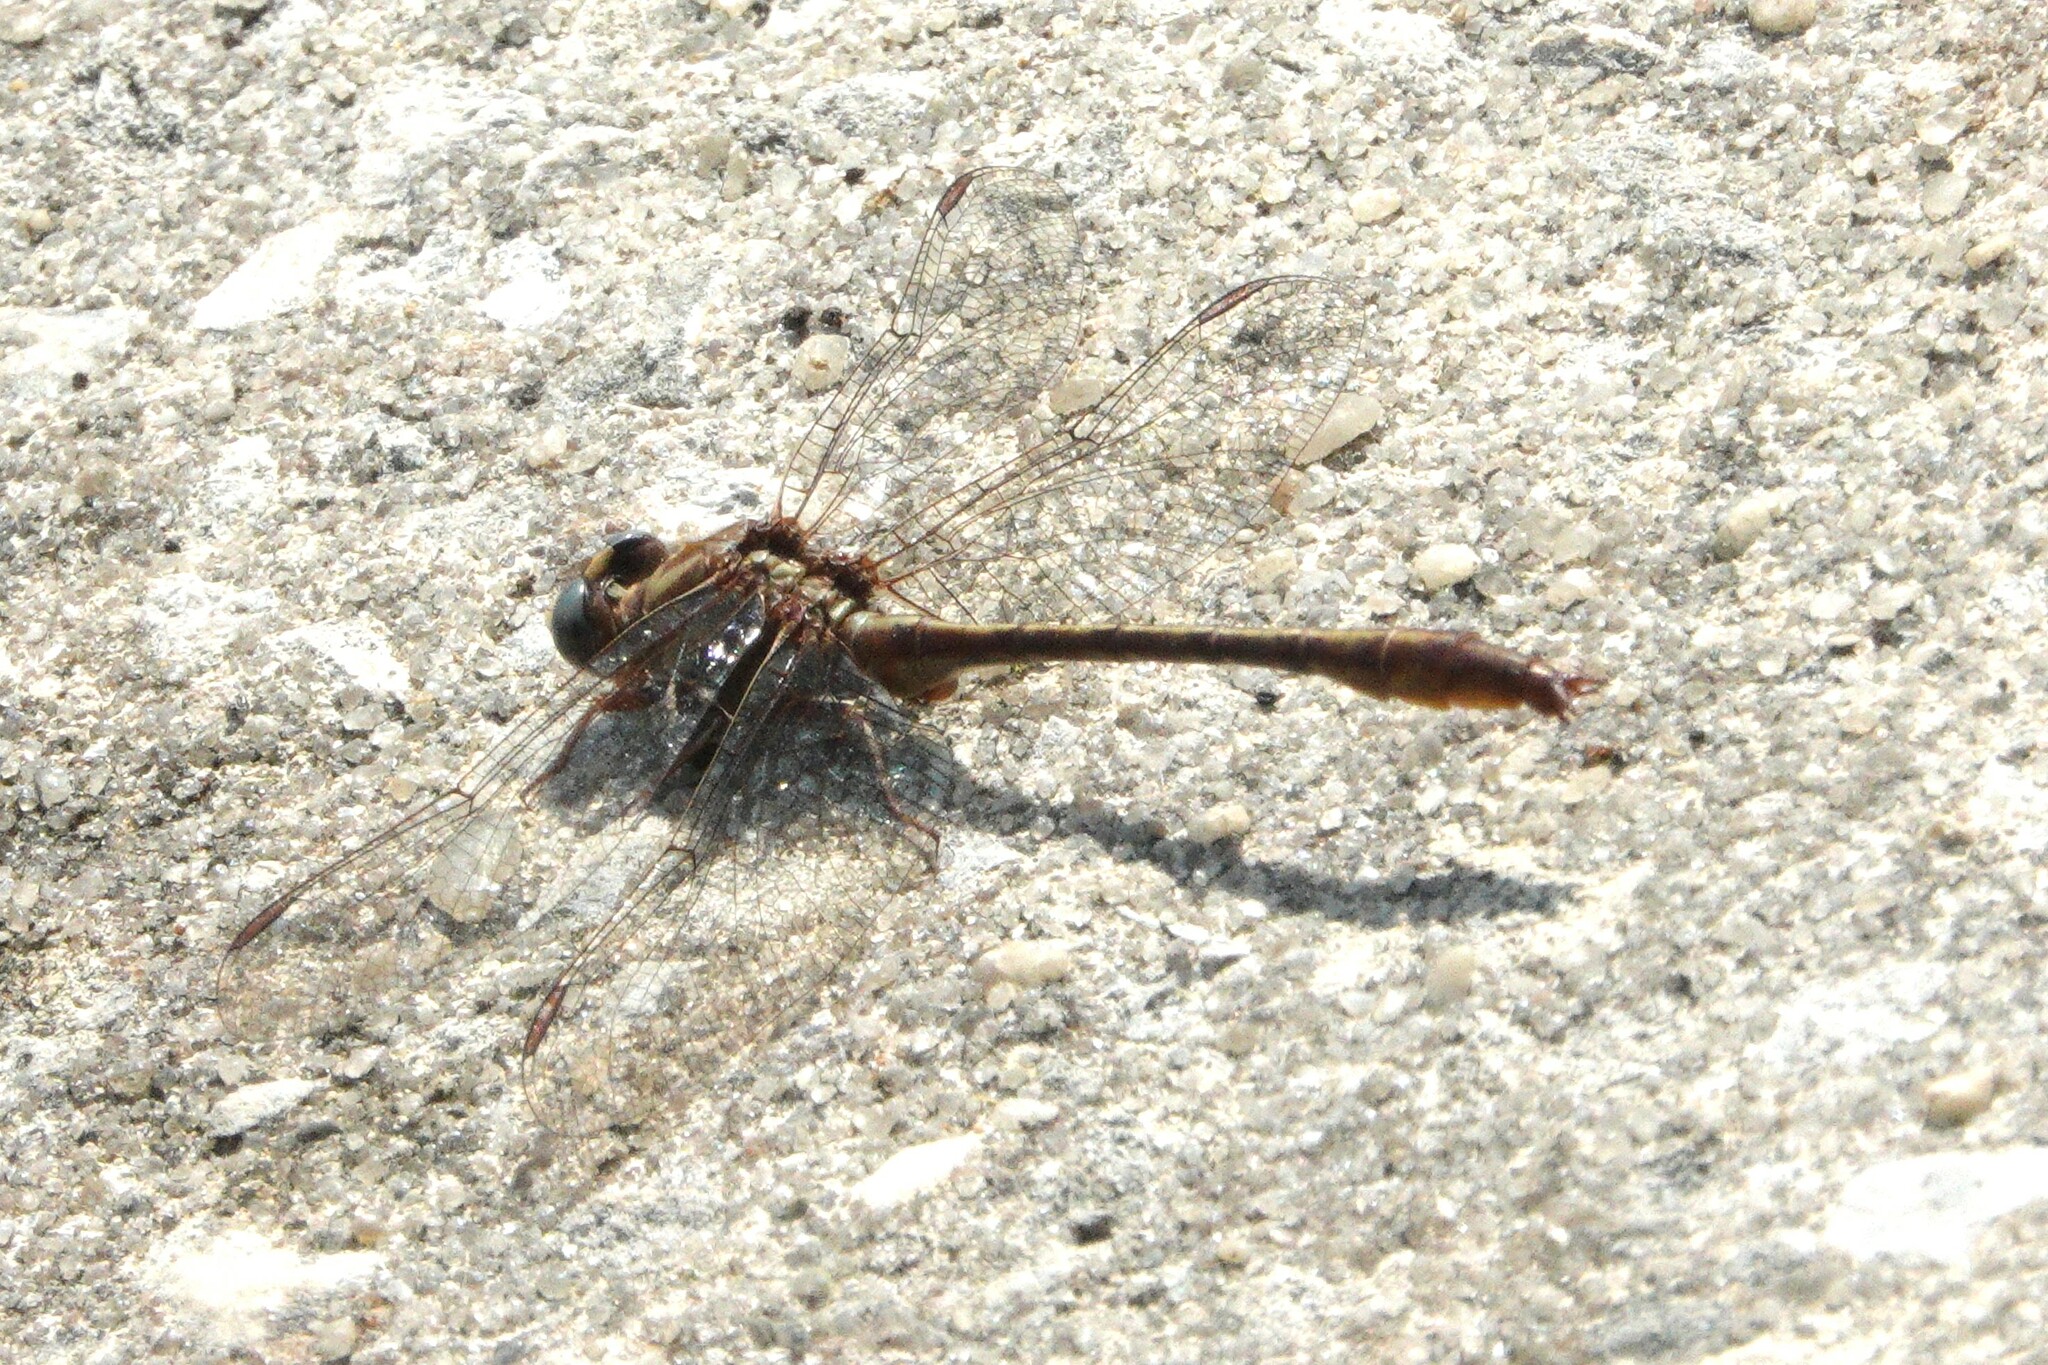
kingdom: Animalia
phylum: Arthropoda
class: Insecta
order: Odonata
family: Gomphidae
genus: Phanogomphus
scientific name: Phanogomphus minutus
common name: Cypress clubtail
